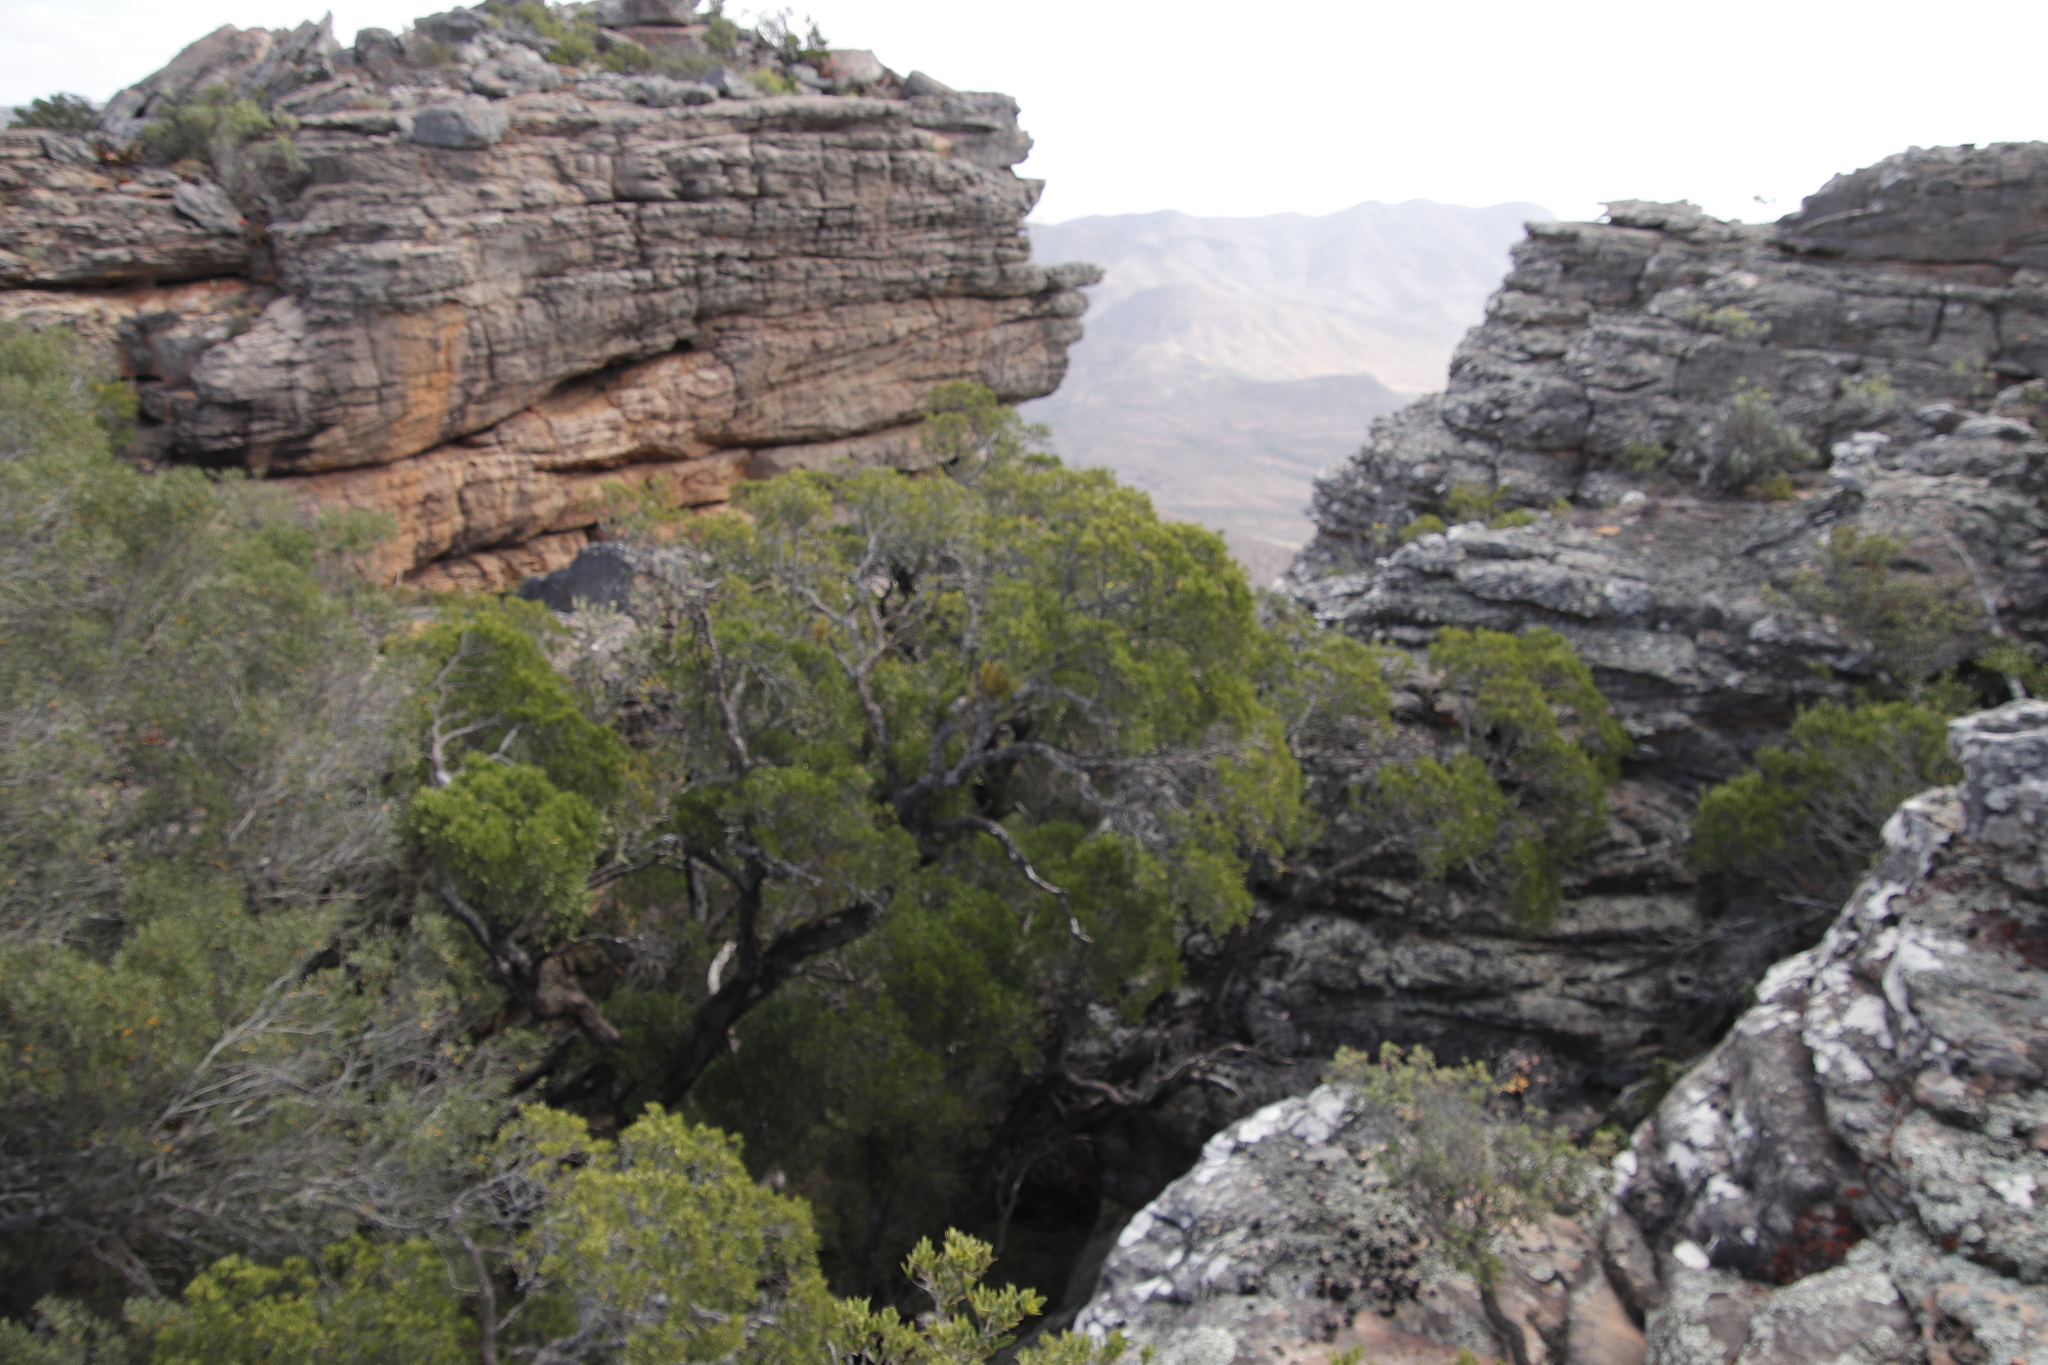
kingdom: Plantae
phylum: Tracheophyta
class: Magnoliopsida
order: Celastrales
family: Celastraceae
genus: Gymnosporia
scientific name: Gymnosporia laurina
